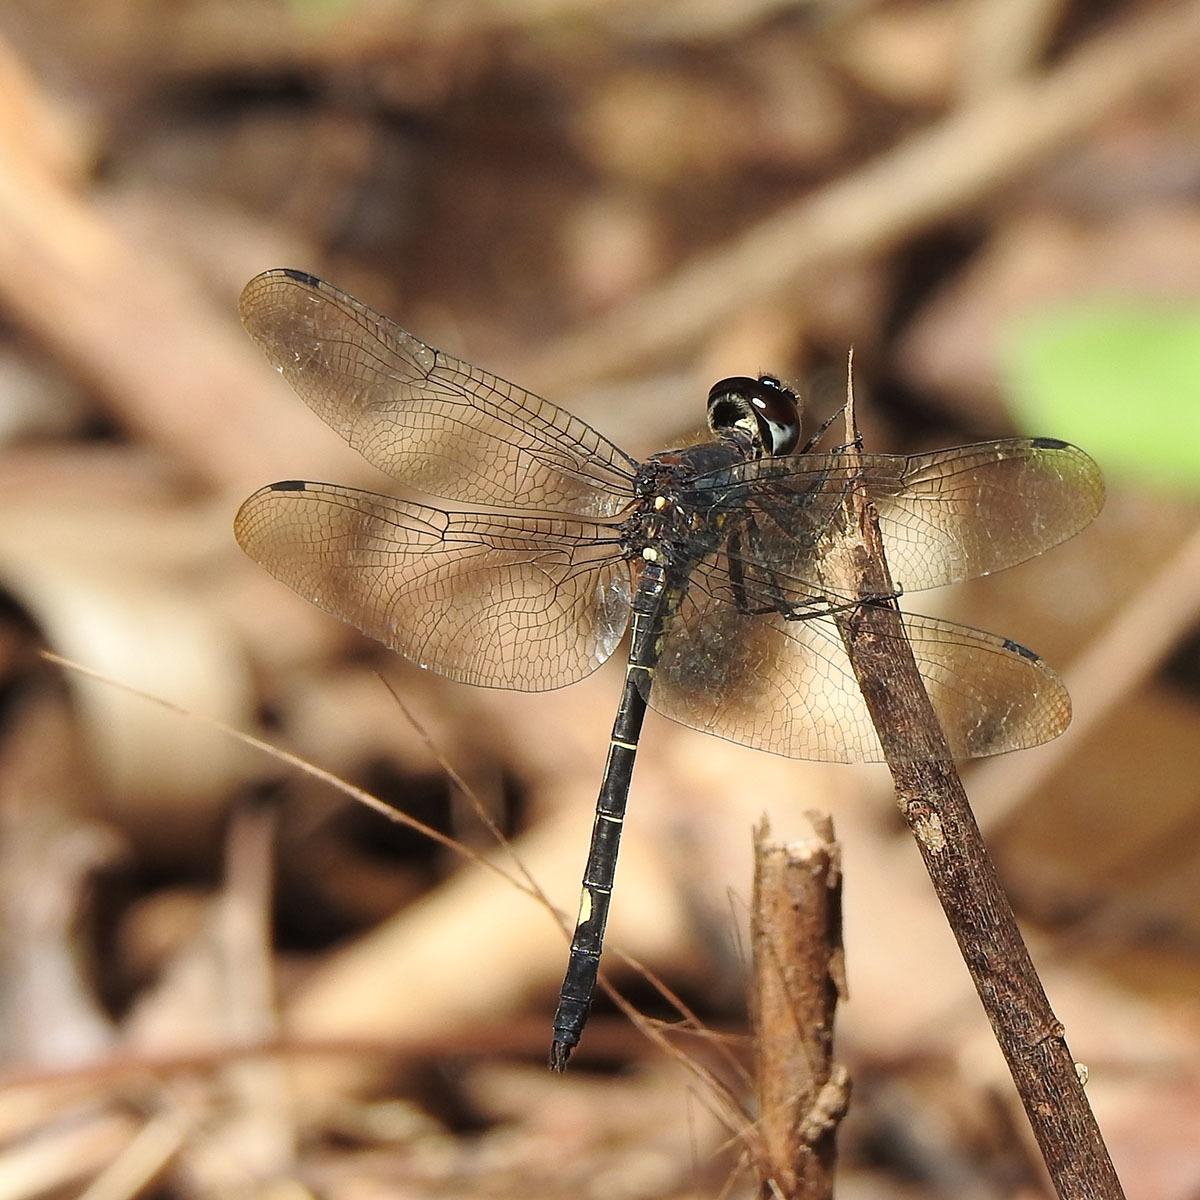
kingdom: Animalia
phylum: Arthropoda
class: Insecta
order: Odonata
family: Libellulidae
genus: Zygonyx
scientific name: Zygonyx iris
